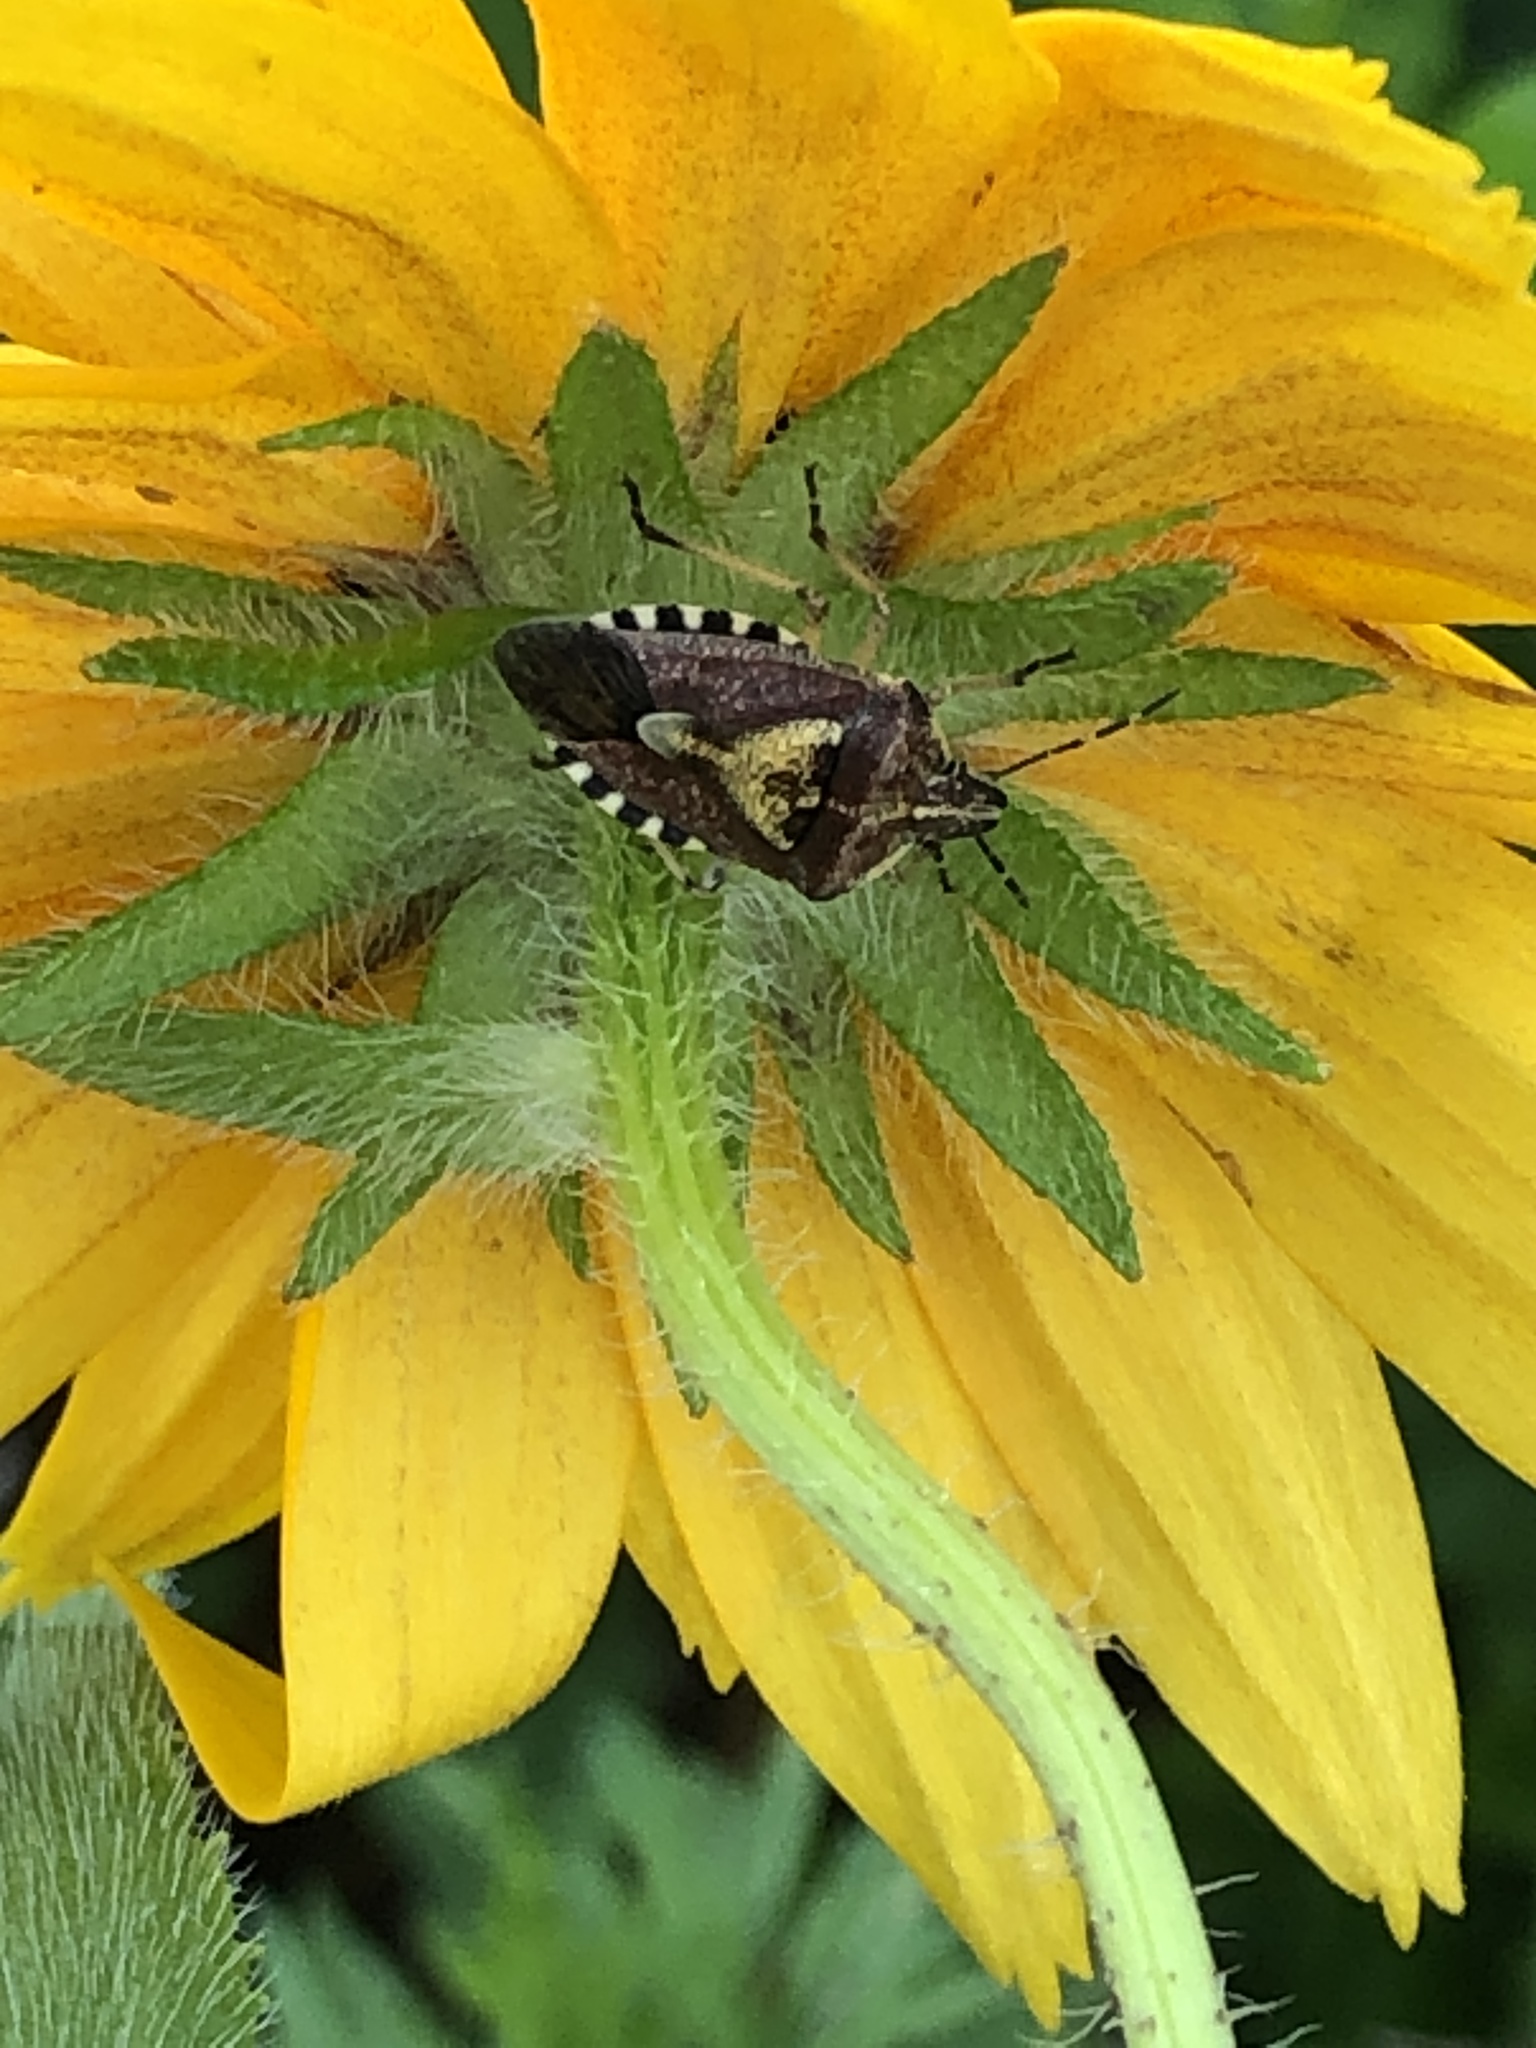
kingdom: Animalia
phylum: Arthropoda
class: Insecta
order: Hemiptera
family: Pentatomidae
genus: Dolycoris
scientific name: Dolycoris baccarum
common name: Sloe bug
